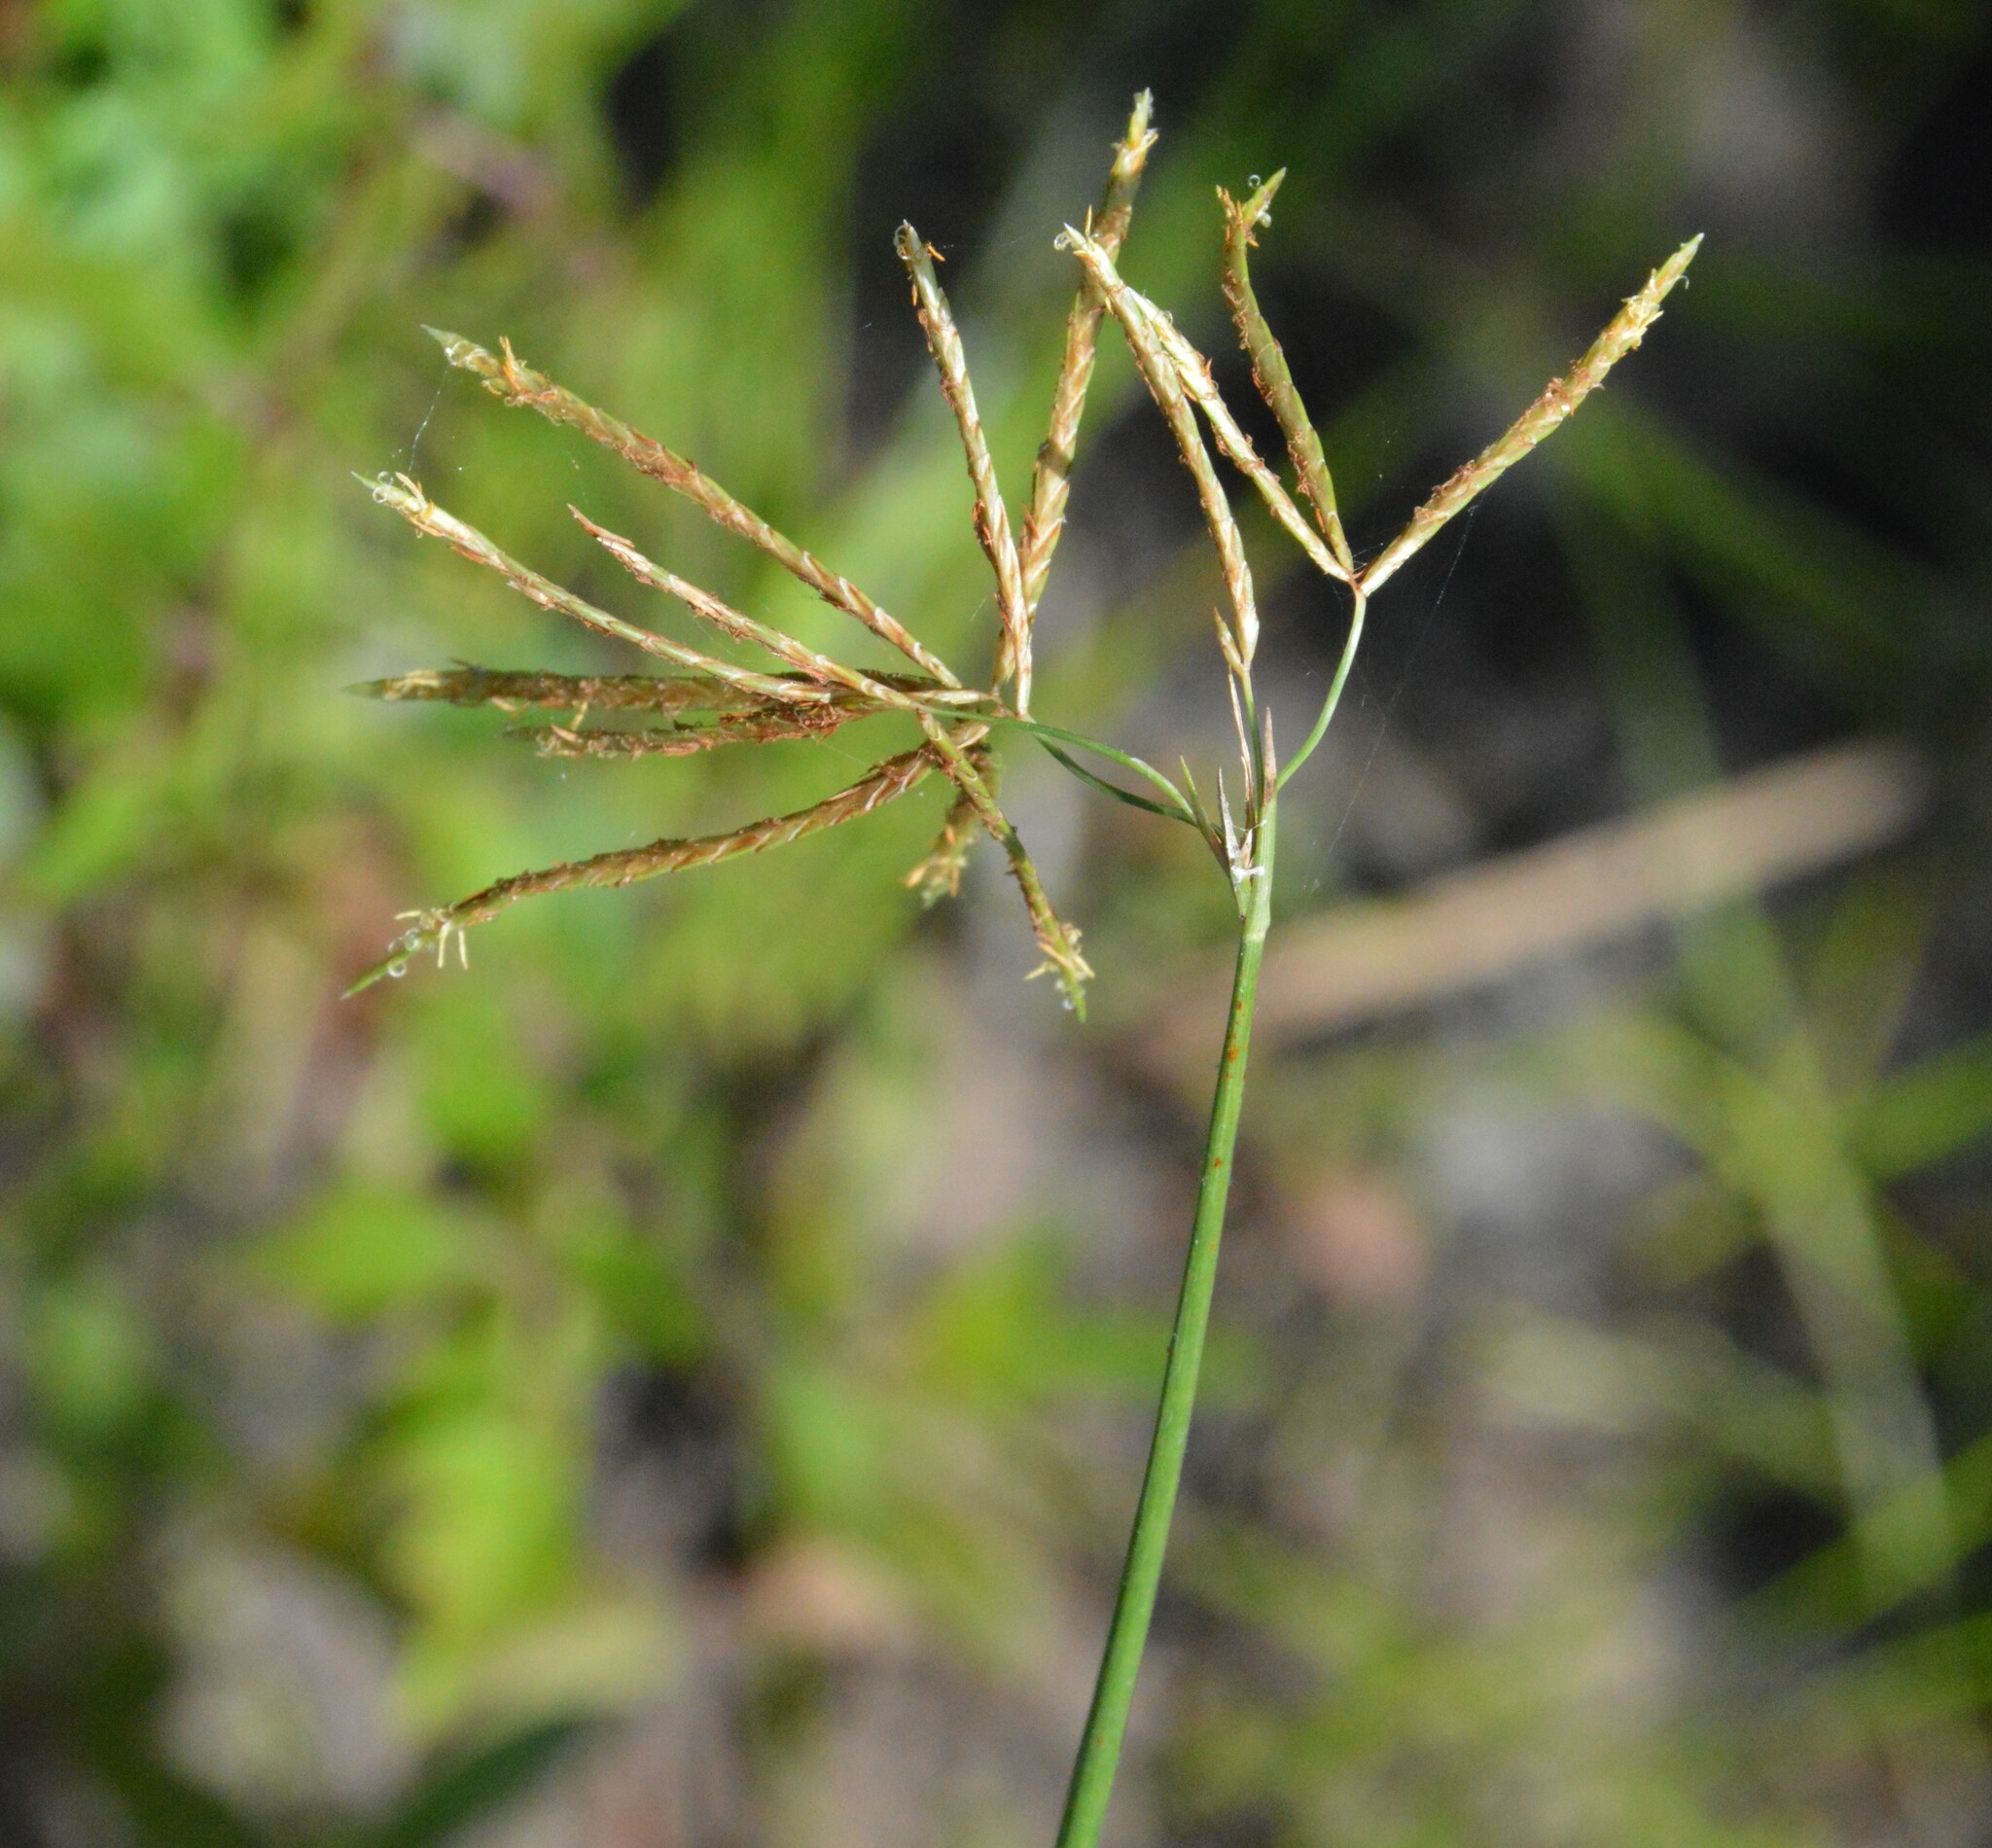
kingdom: Plantae
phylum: Tracheophyta
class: Liliopsida
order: Poales
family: Cyperaceae
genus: Cyperus
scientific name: Cyperus articulatus
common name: Jointed flatsedge
